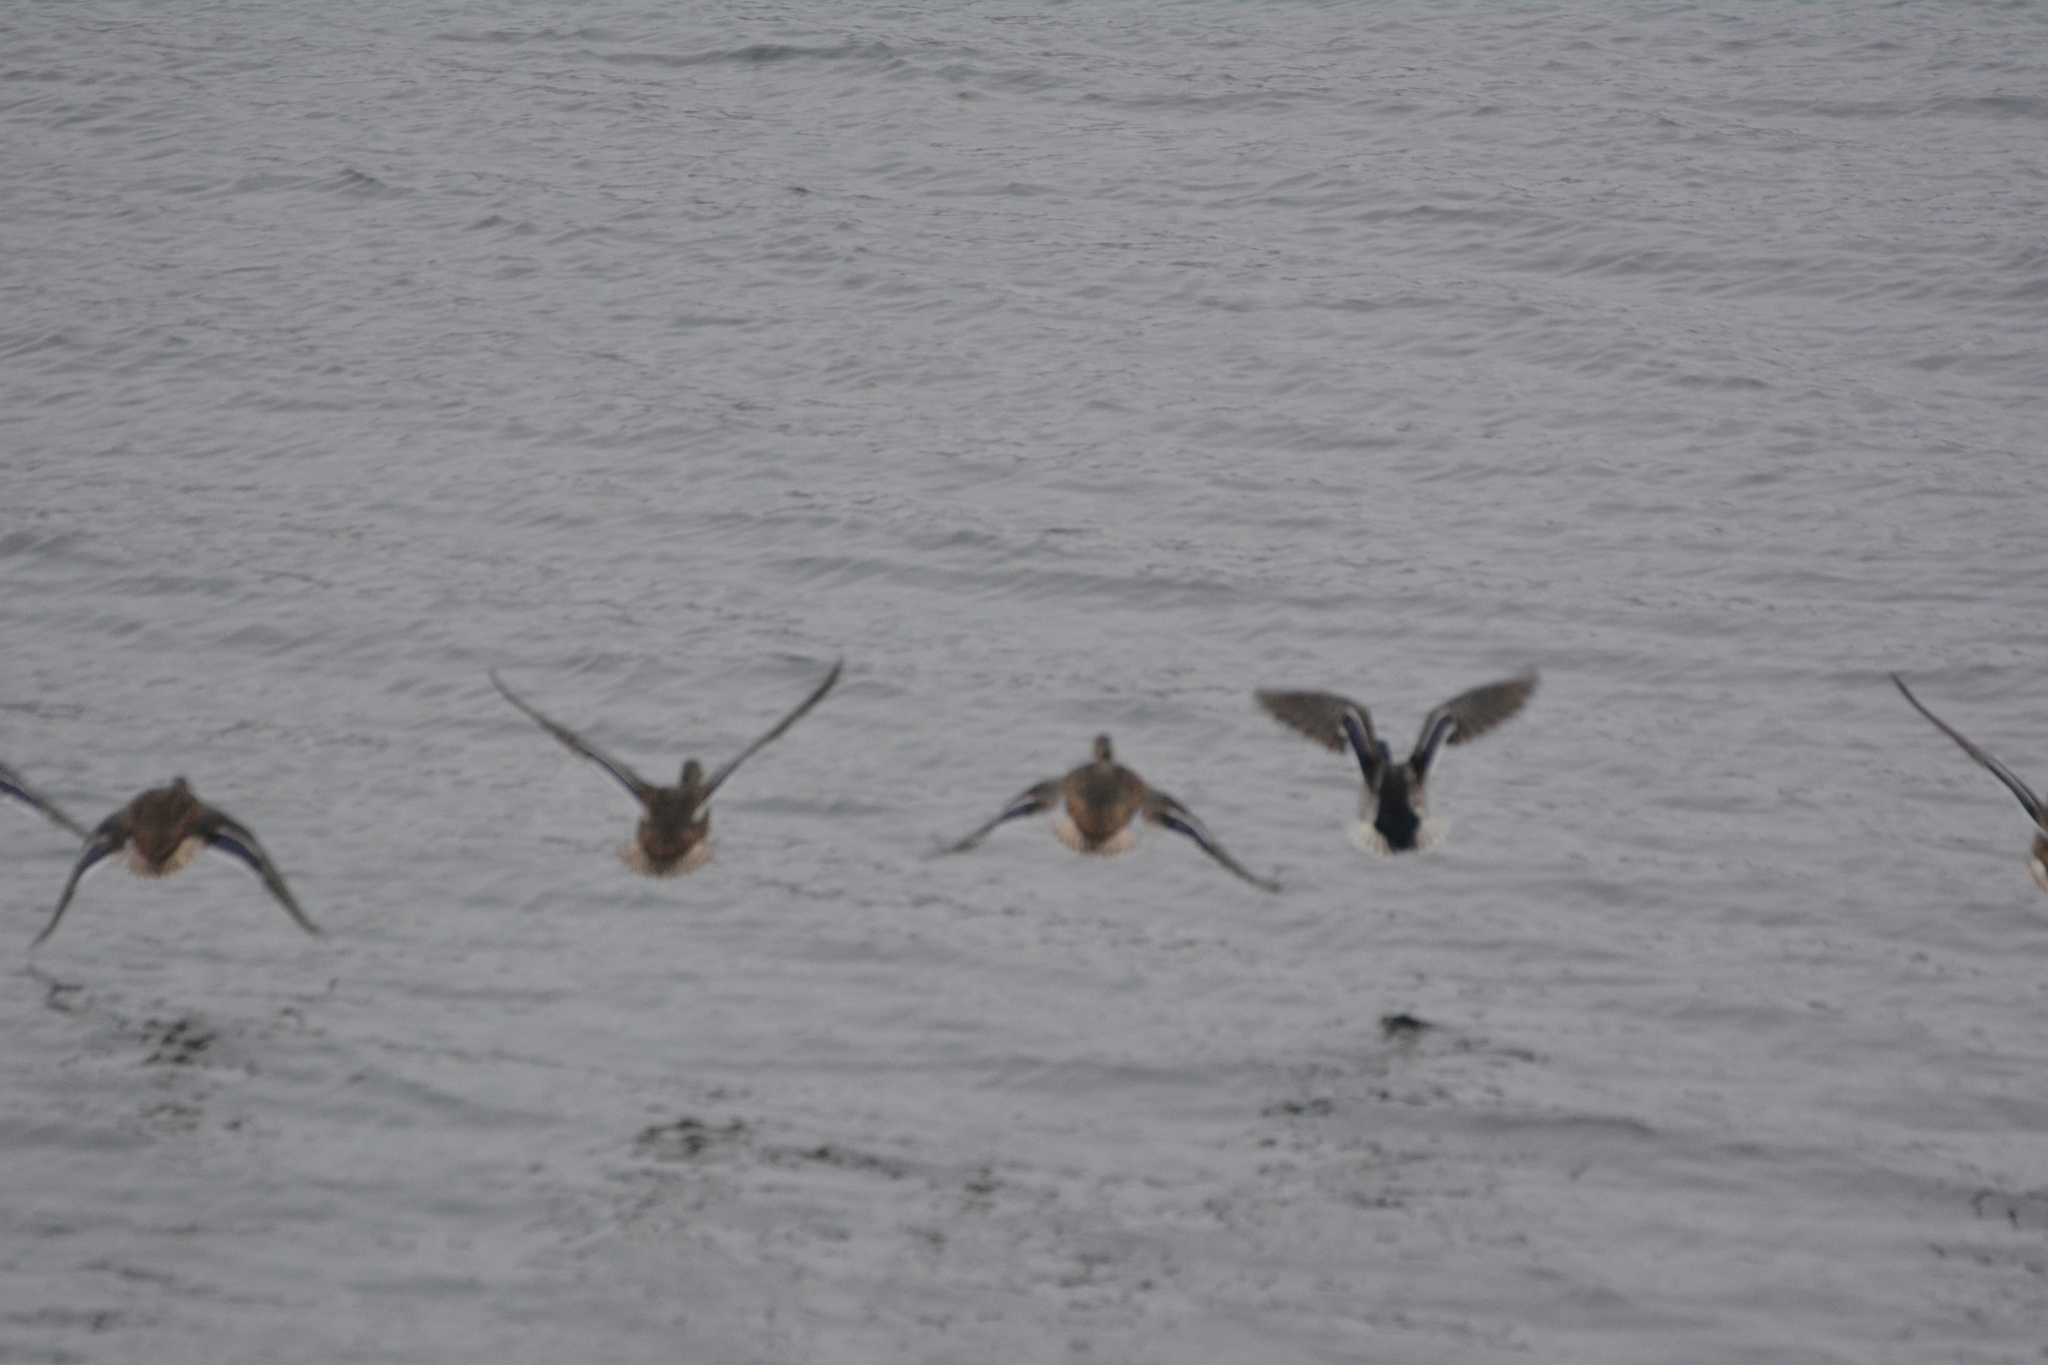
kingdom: Animalia
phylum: Chordata
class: Aves
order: Anseriformes
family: Anatidae
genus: Anas
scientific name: Anas platyrhynchos
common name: Mallard
